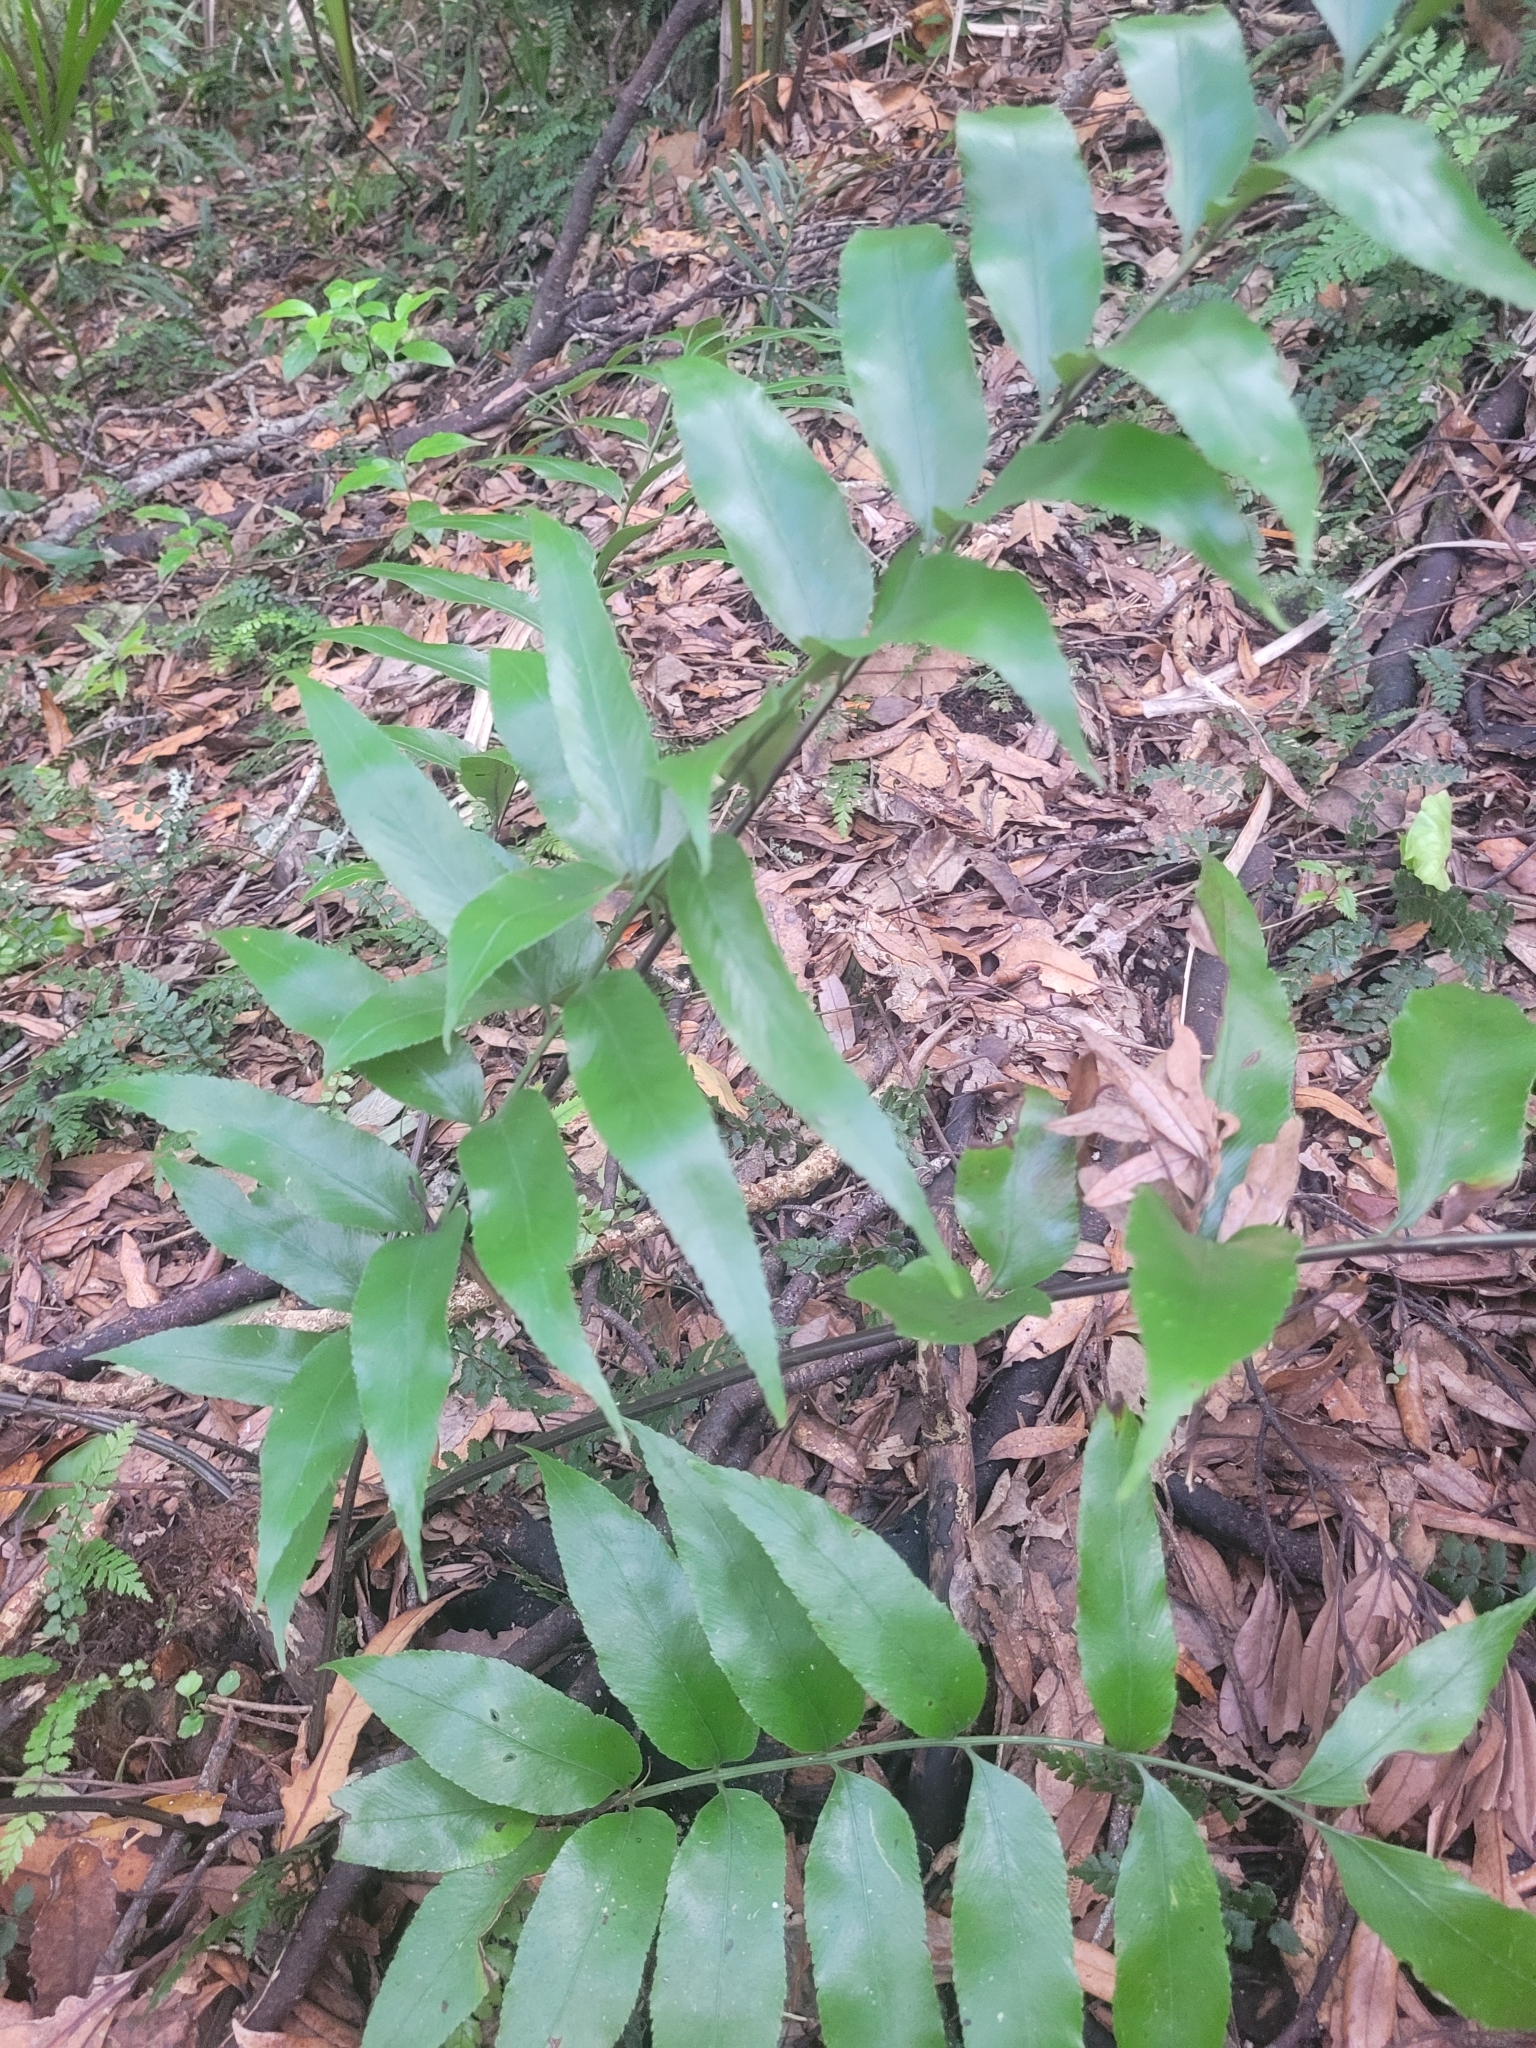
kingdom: Plantae
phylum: Tracheophyta
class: Polypodiopsida
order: Polypodiales
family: Aspleniaceae
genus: Asplenium
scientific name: Asplenium oblongifolium
